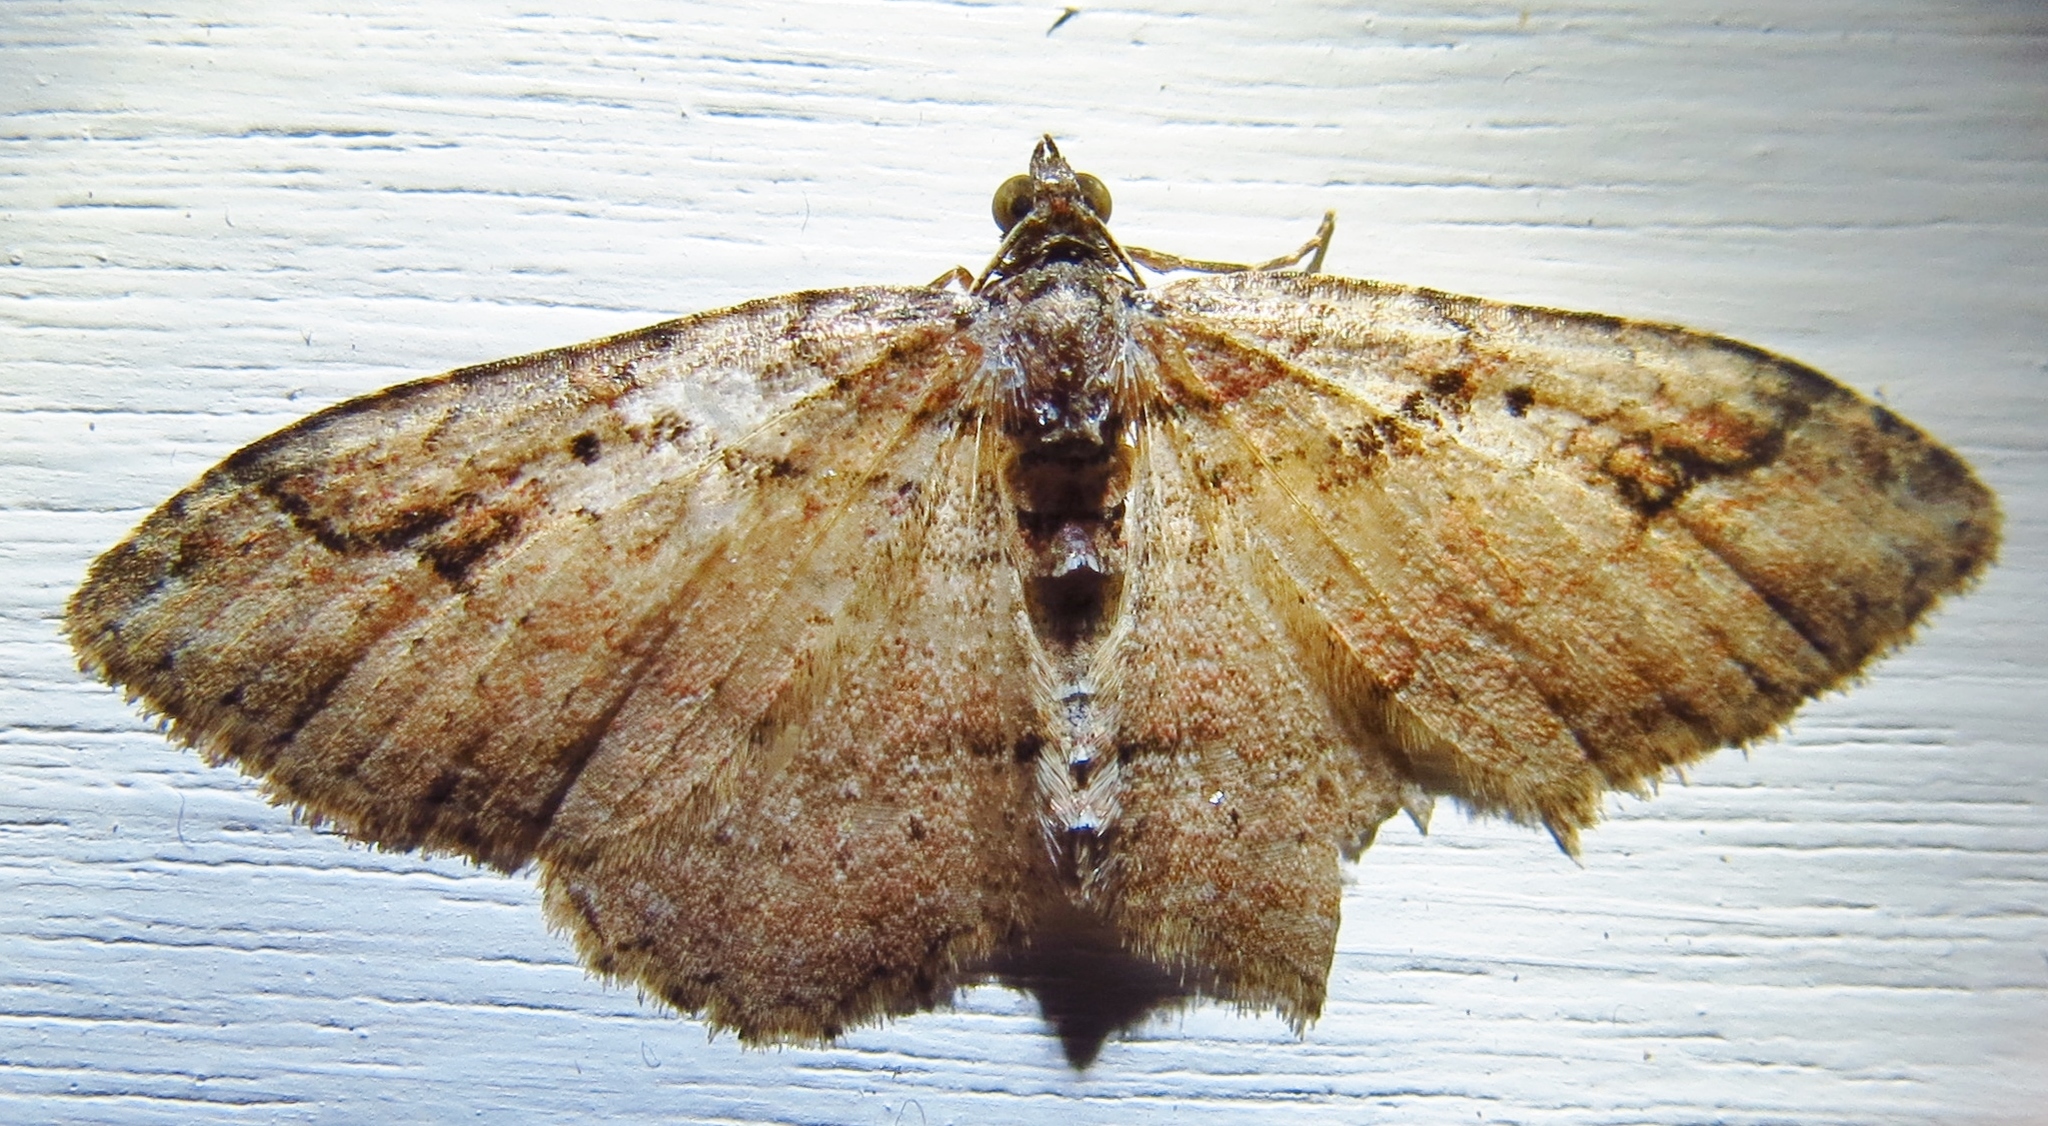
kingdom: Animalia
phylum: Arthropoda
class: Insecta
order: Lepidoptera
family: Geometridae
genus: Costaconvexa
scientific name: Costaconvexa centrostrigaria
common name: Bent-line carpet
